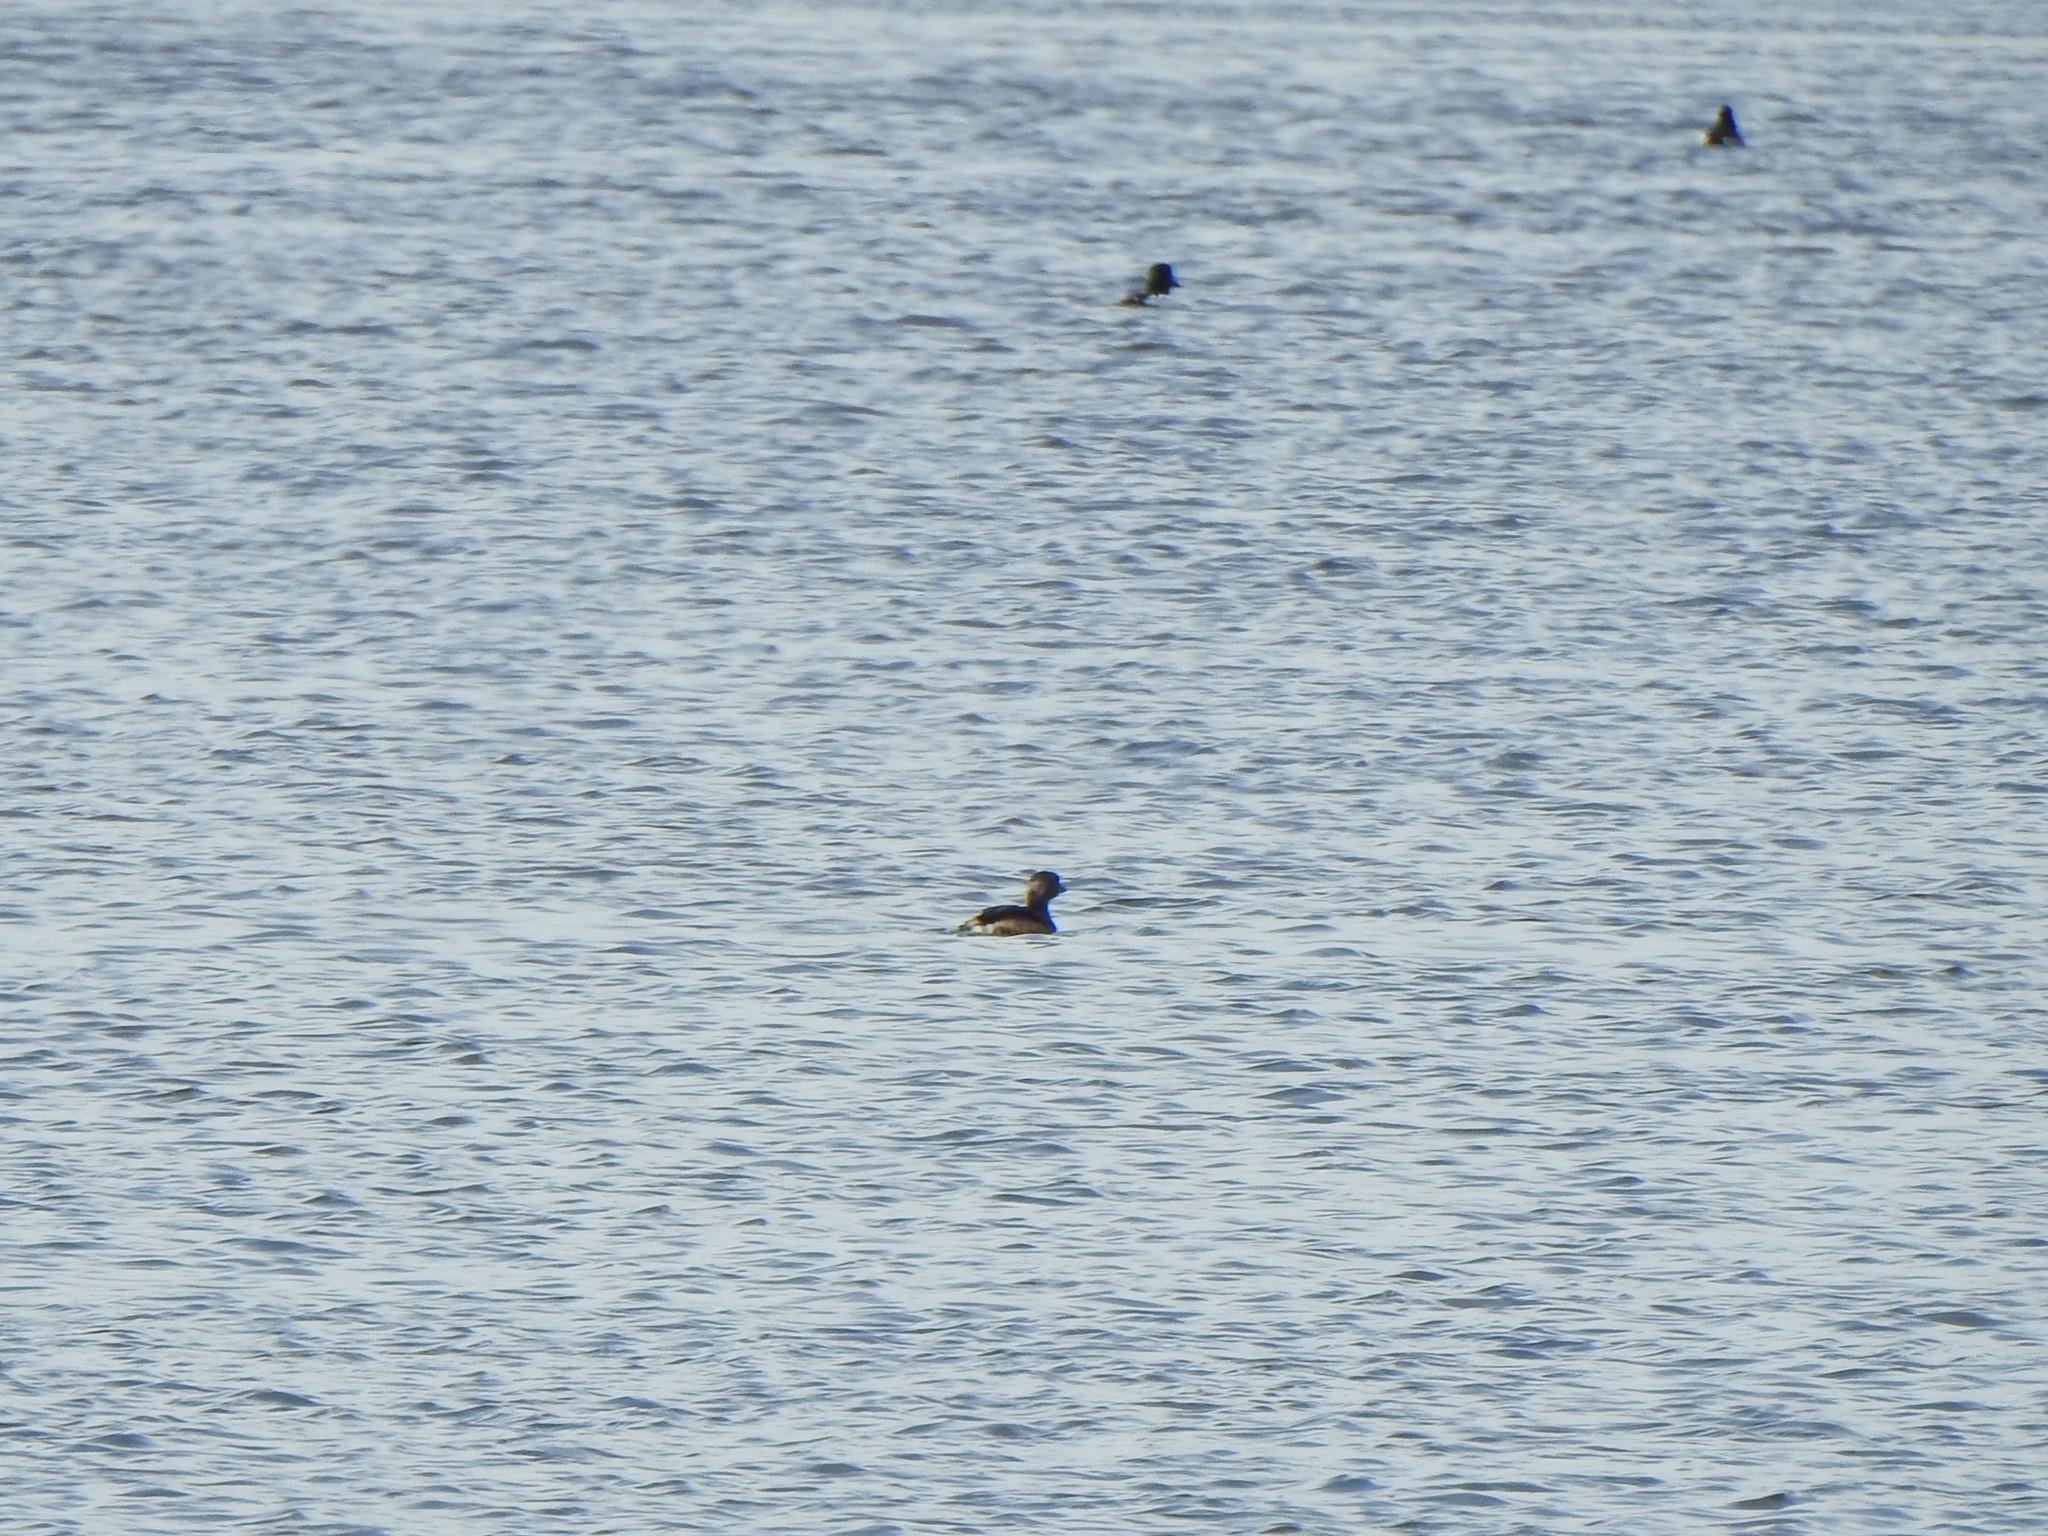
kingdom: Animalia
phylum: Chordata
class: Aves
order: Podicipediformes
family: Podicipedidae
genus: Podilymbus
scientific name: Podilymbus podiceps
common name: Pied-billed grebe
